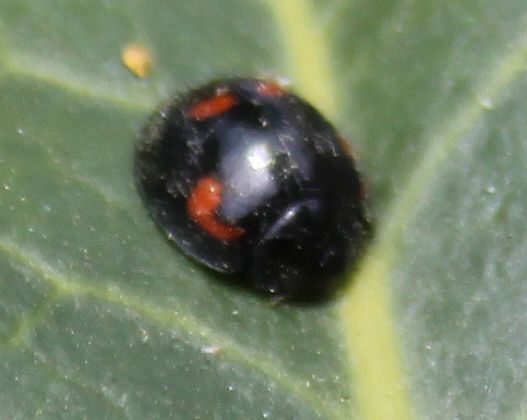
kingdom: Animalia
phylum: Arthropoda
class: Insecta
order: Coleoptera
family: Coccinellidae
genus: Brumus
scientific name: Brumus quadripustulatus
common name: Ladybird beetle
